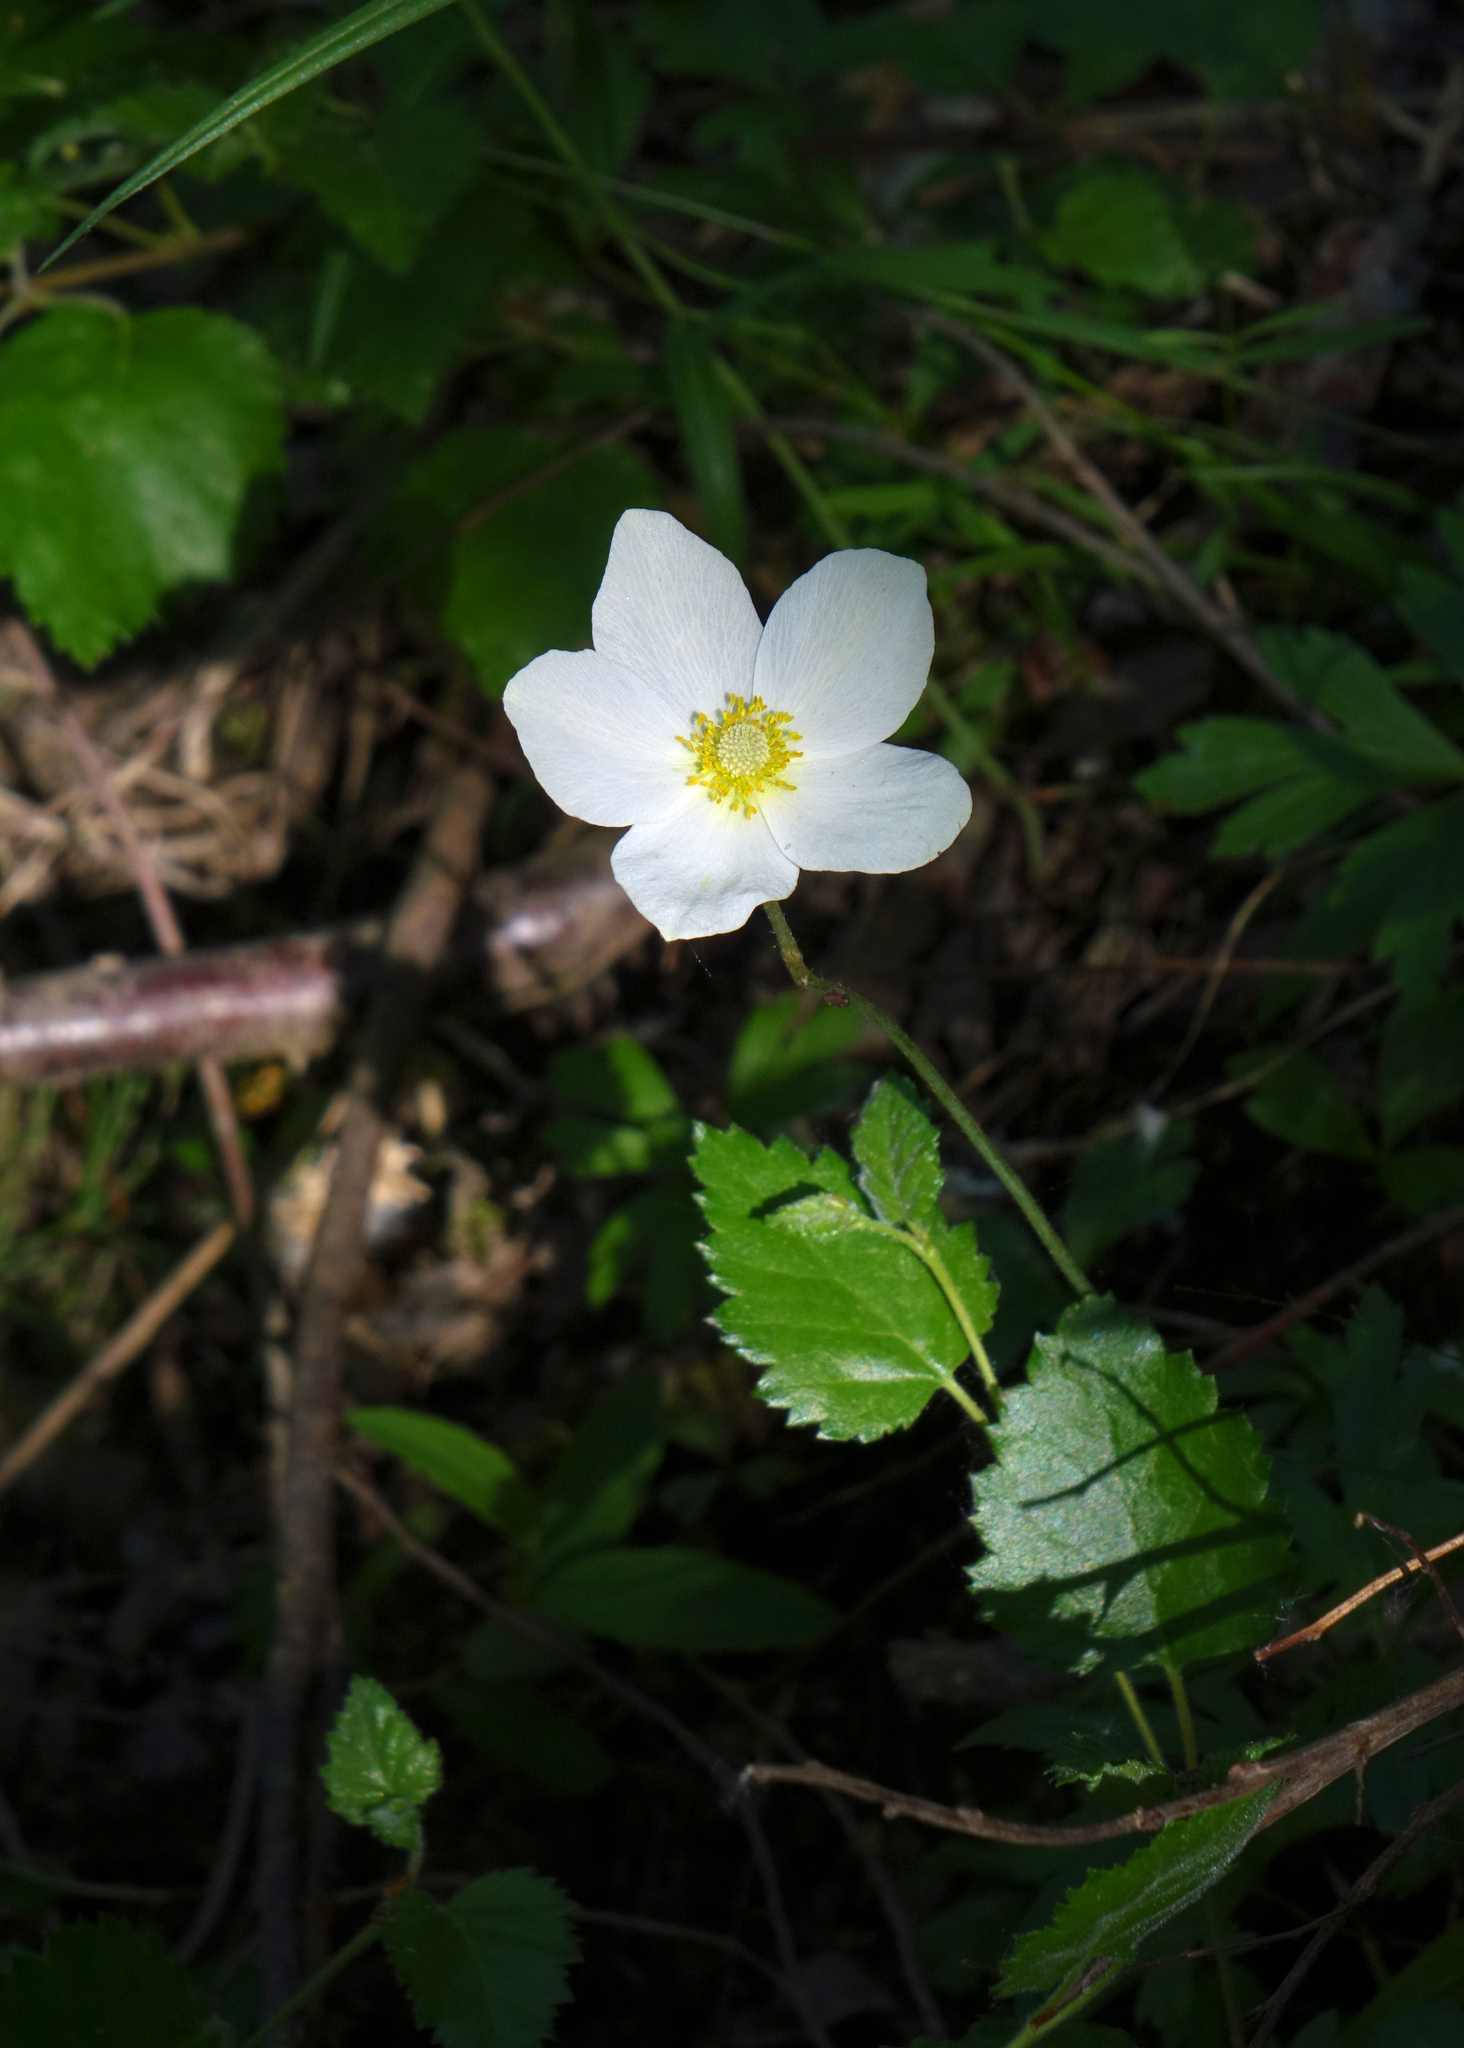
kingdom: Plantae
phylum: Tracheophyta
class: Magnoliopsida
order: Ranunculales
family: Ranunculaceae
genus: Anemone
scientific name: Anemone sylvestris
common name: Snowdrop anemone
